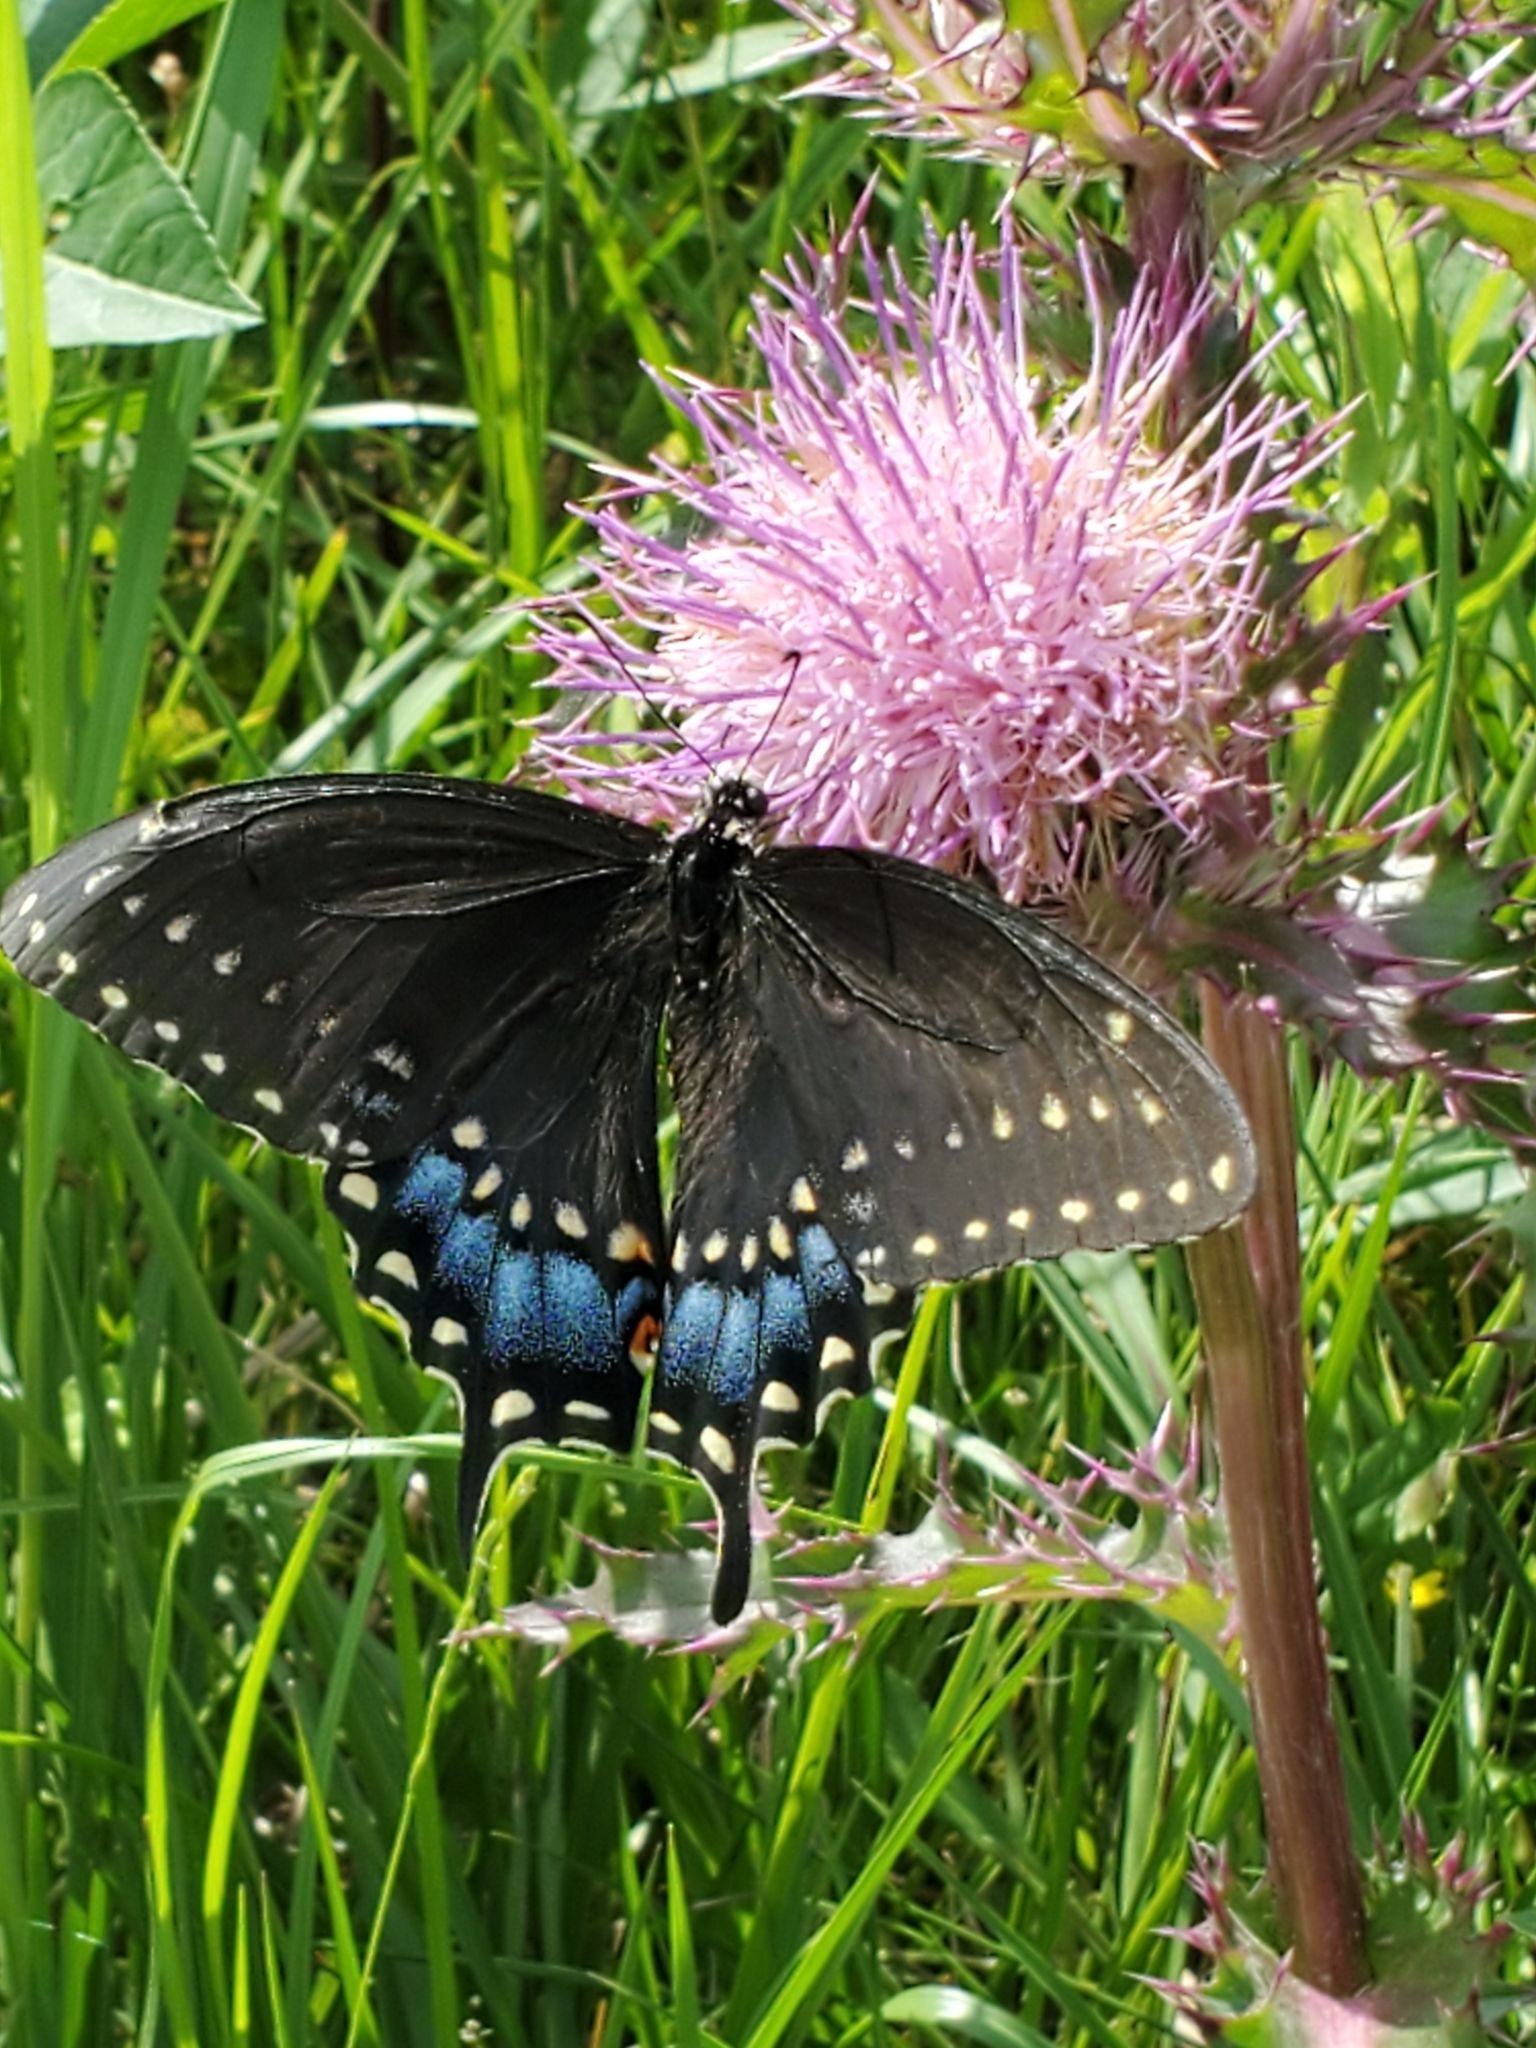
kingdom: Animalia
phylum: Arthropoda
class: Insecta
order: Lepidoptera
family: Papilionidae
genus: Papilio
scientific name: Papilio polyxenes
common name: Black swallowtail
